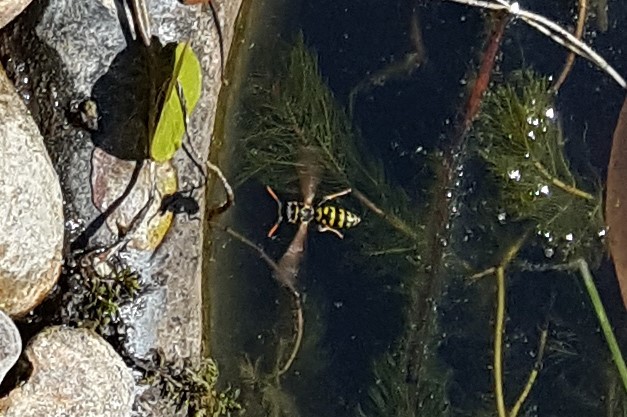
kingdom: Animalia
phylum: Arthropoda
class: Insecta
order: Hymenoptera
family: Eumenidae
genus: Polistes
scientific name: Polistes dominula
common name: Paper wasp
